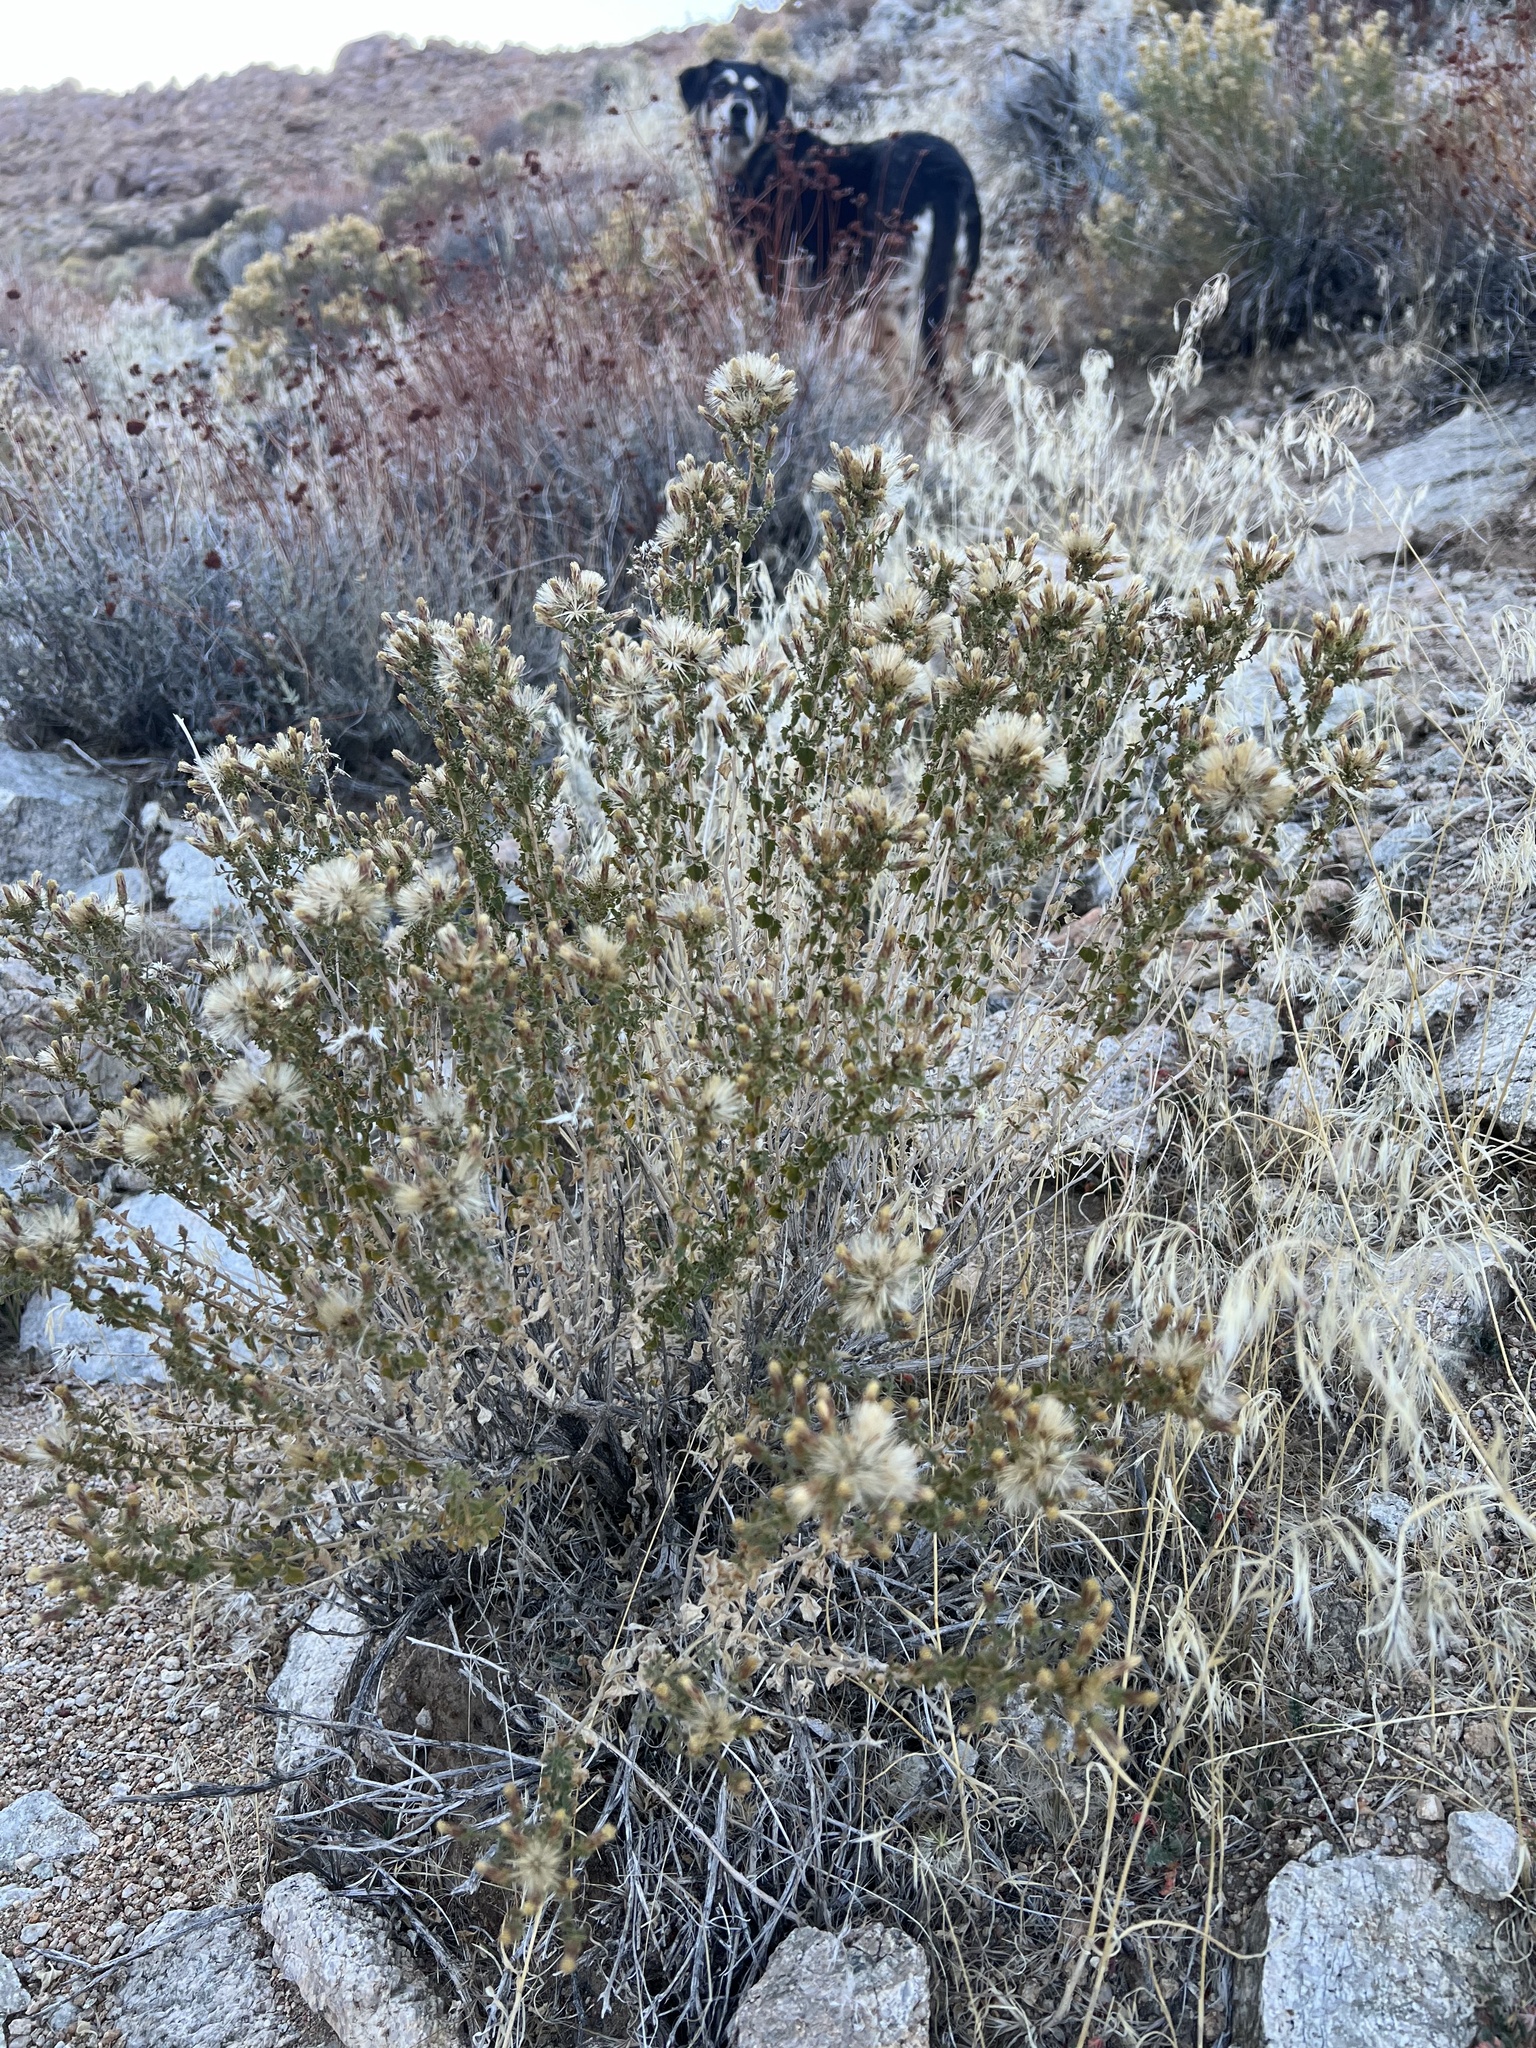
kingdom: Plantae
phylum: Tracheophyta
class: Magnoliopsida
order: Asterales
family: Asteraceae
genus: Brickellia
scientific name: Brickellia microphylla
